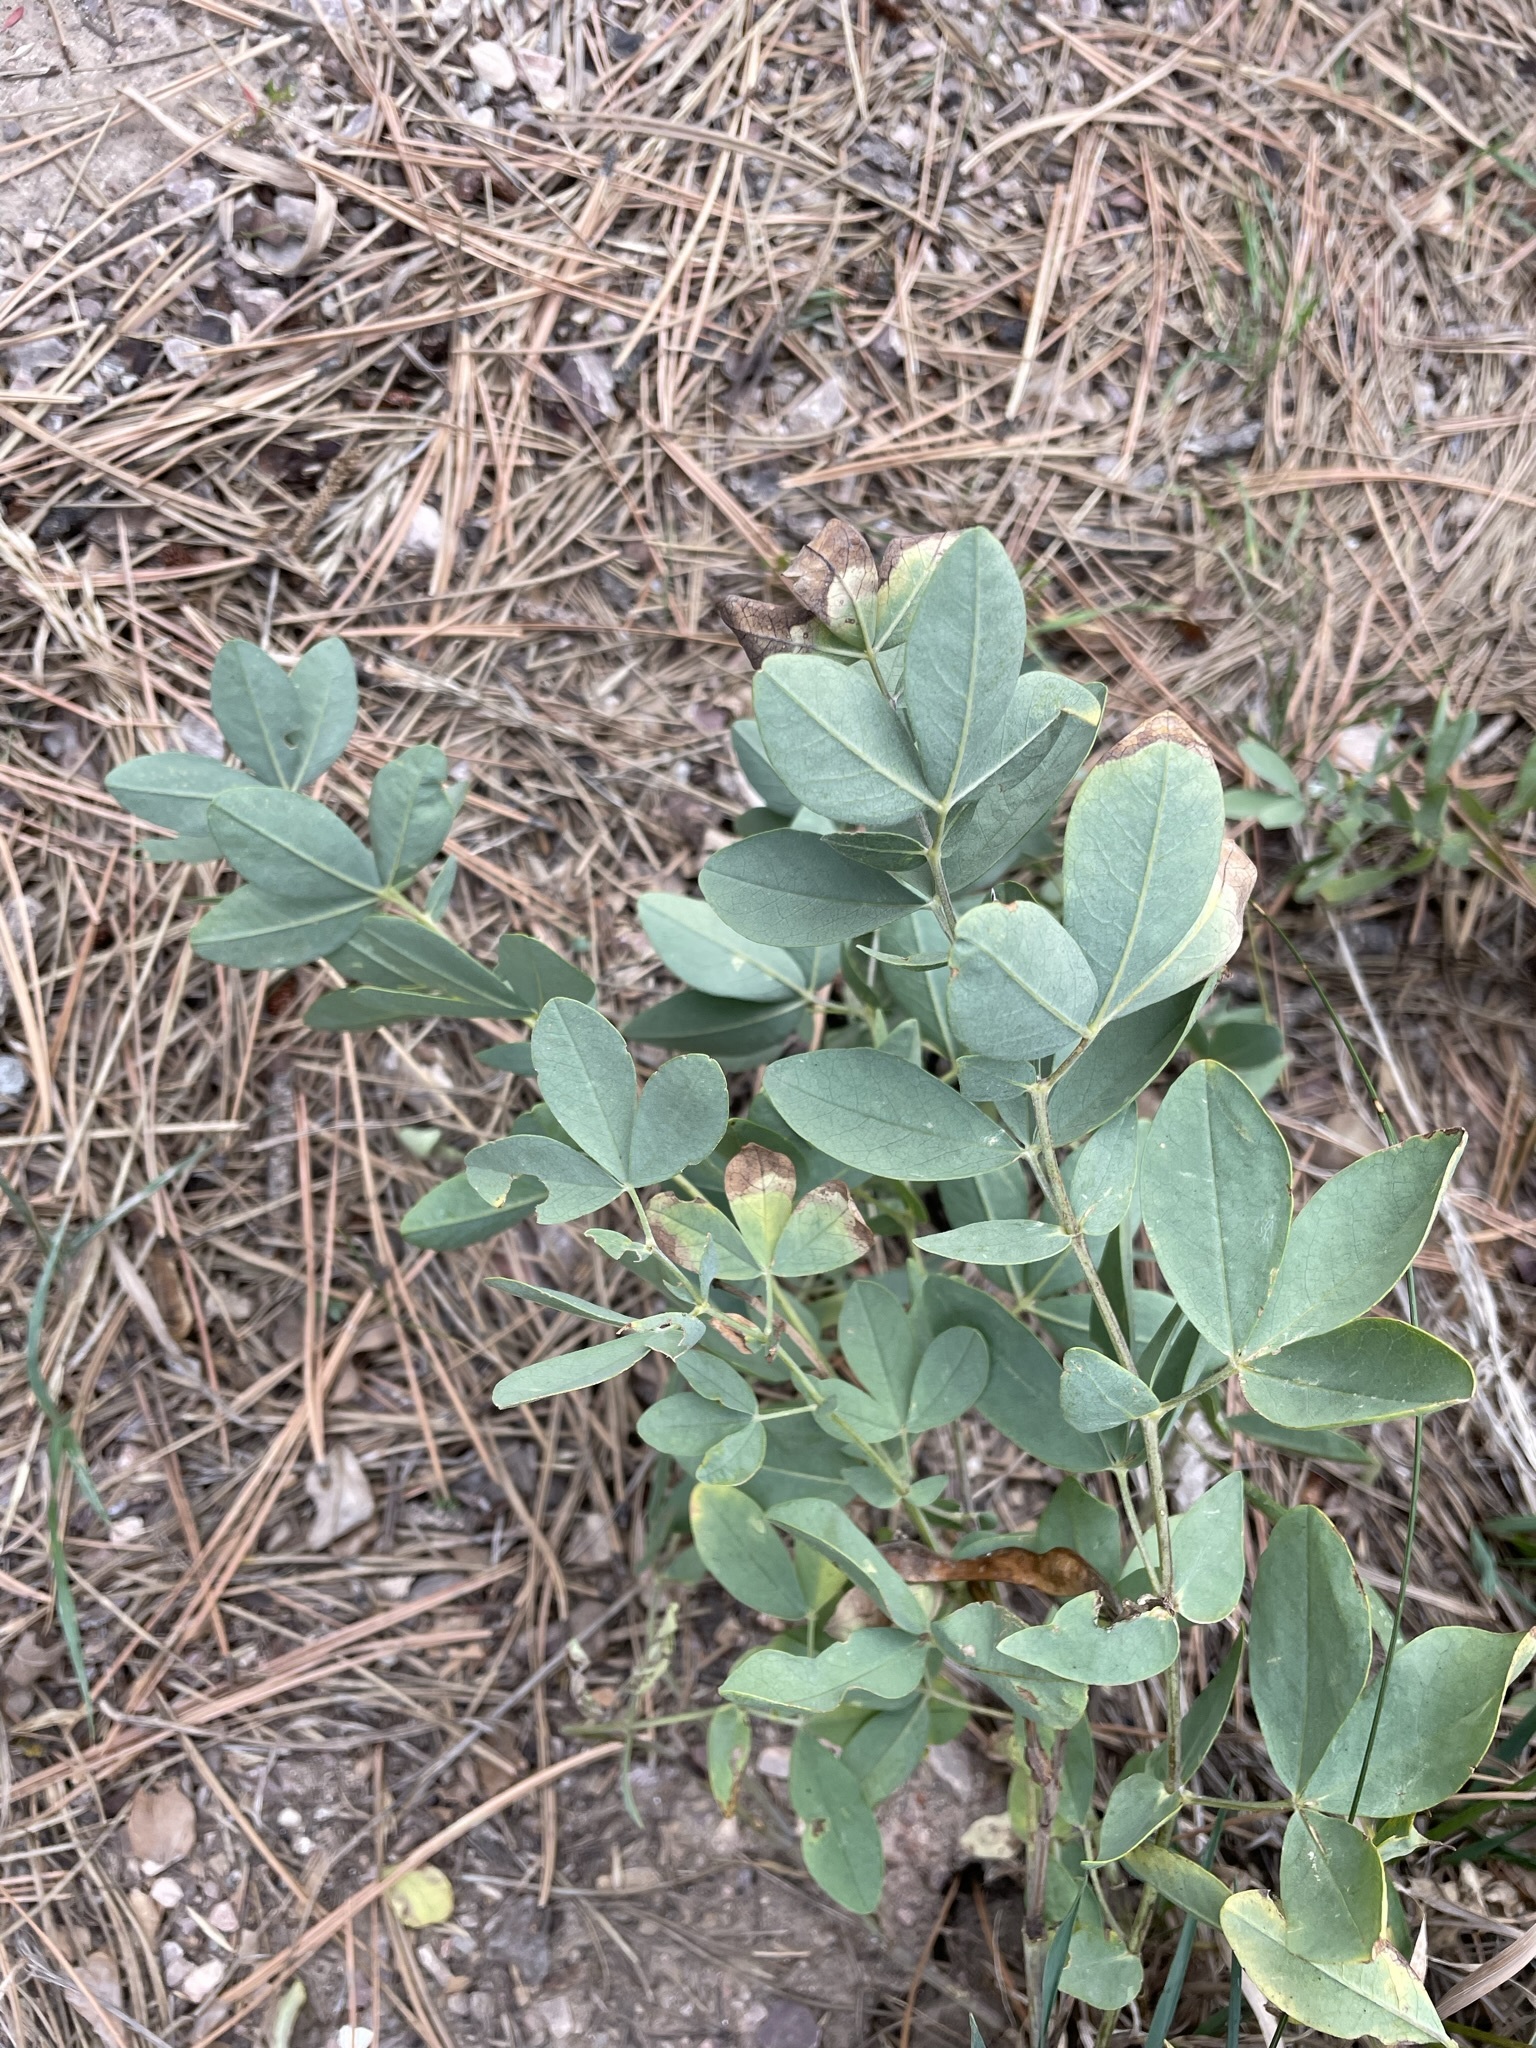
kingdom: Plantae
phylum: Tracheophyta
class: Magnoliopsida
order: Fabales
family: Fabaceae
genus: Thermopsis
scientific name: Thermopsis rhombifolia
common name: Circle-pod-pea
